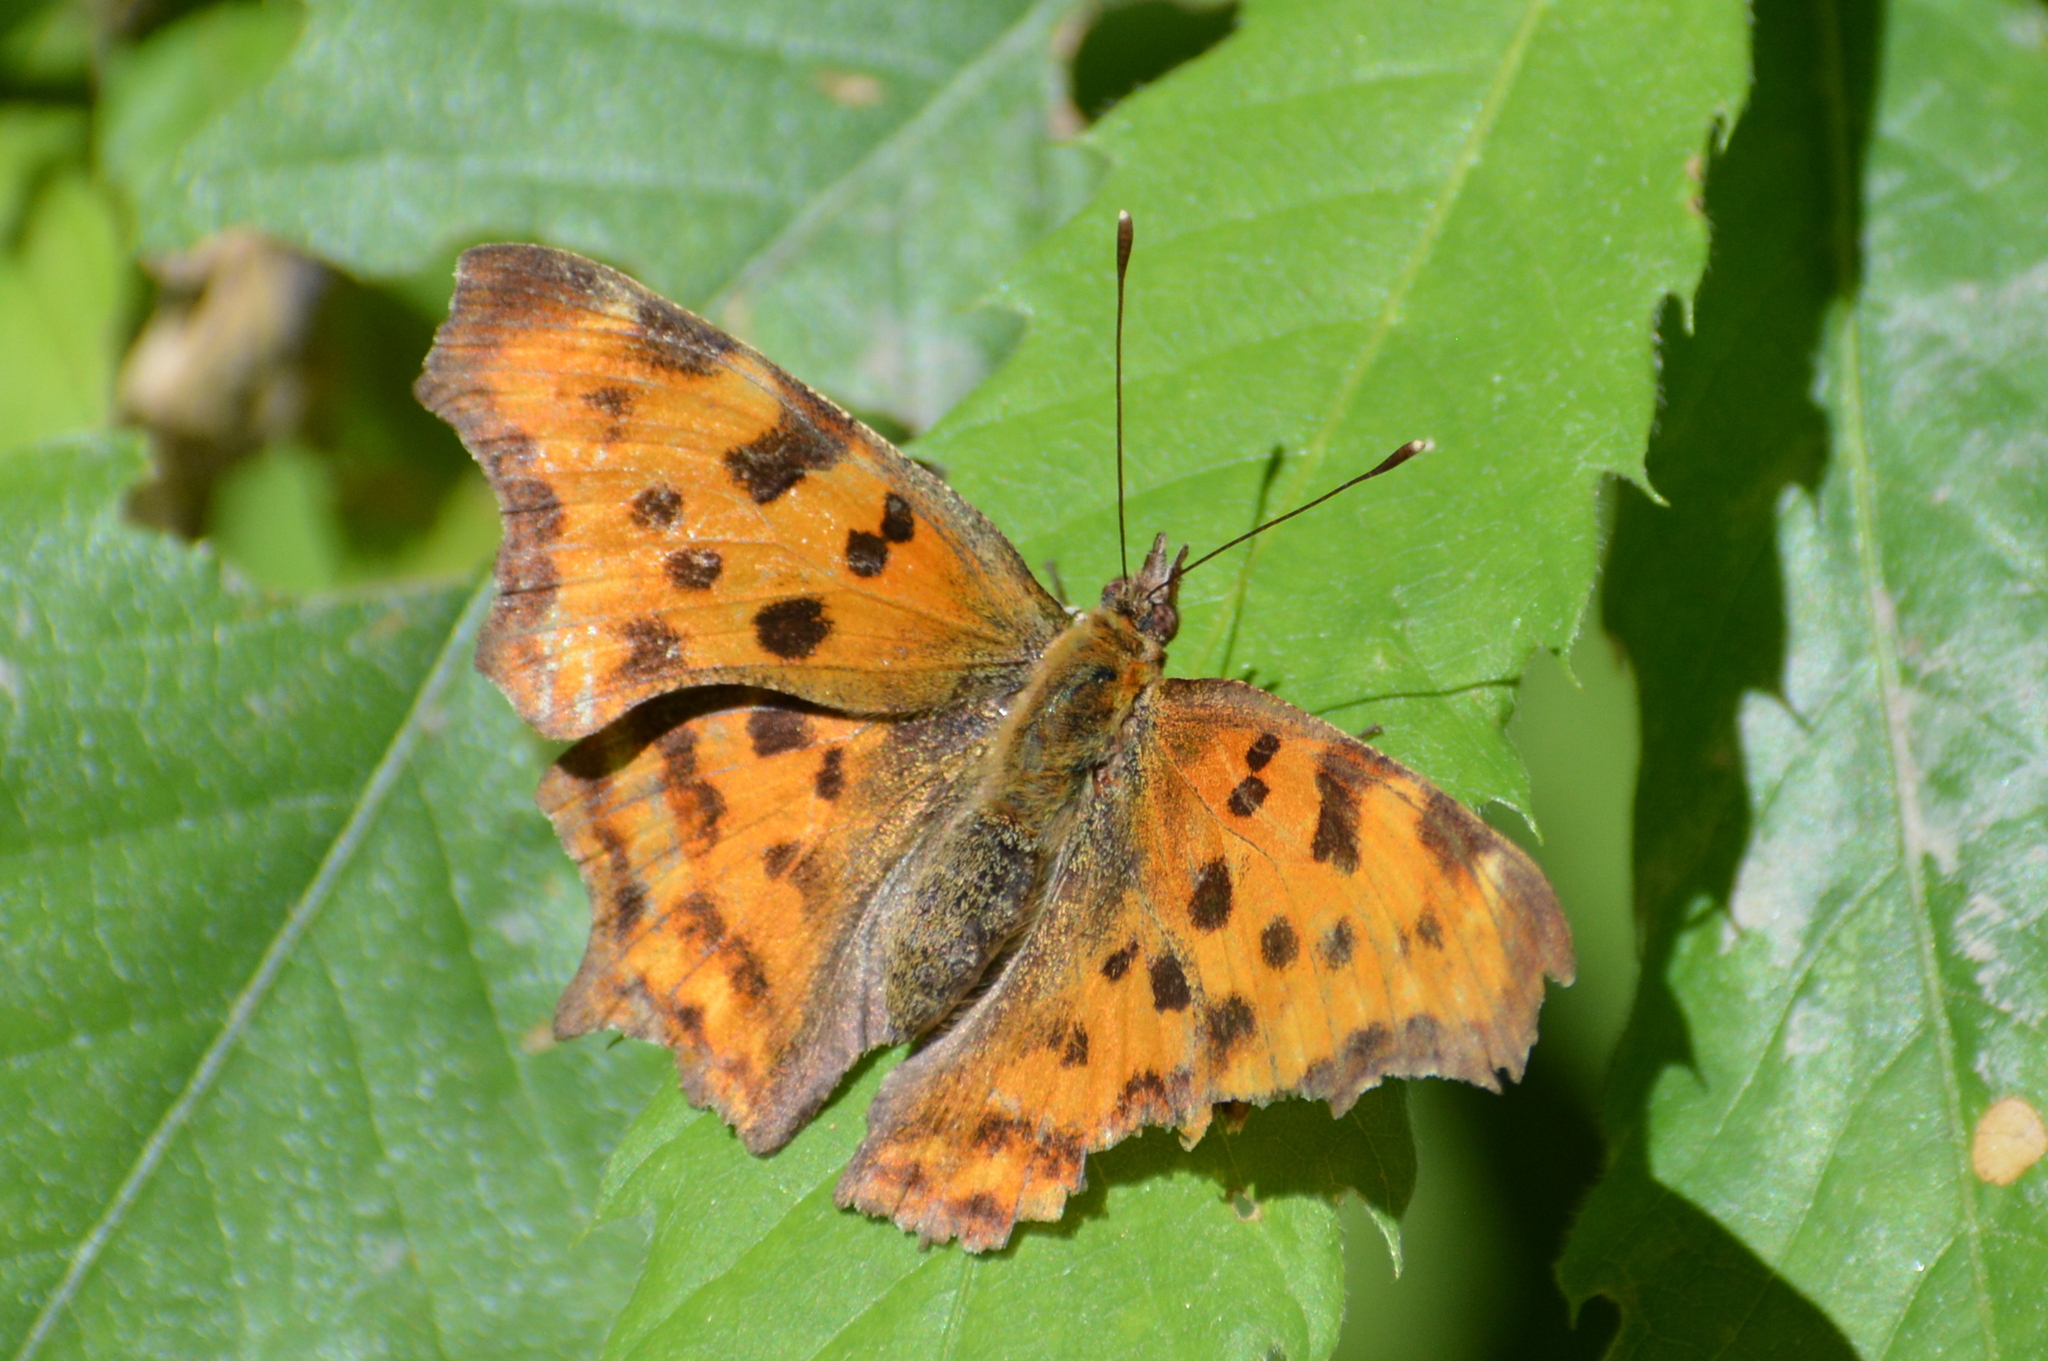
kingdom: Animalia
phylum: Arthropoda
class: Insecta
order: Lepidoptera
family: Nymphalidae
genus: Polygonia
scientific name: Polygonia c-album
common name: Comma
